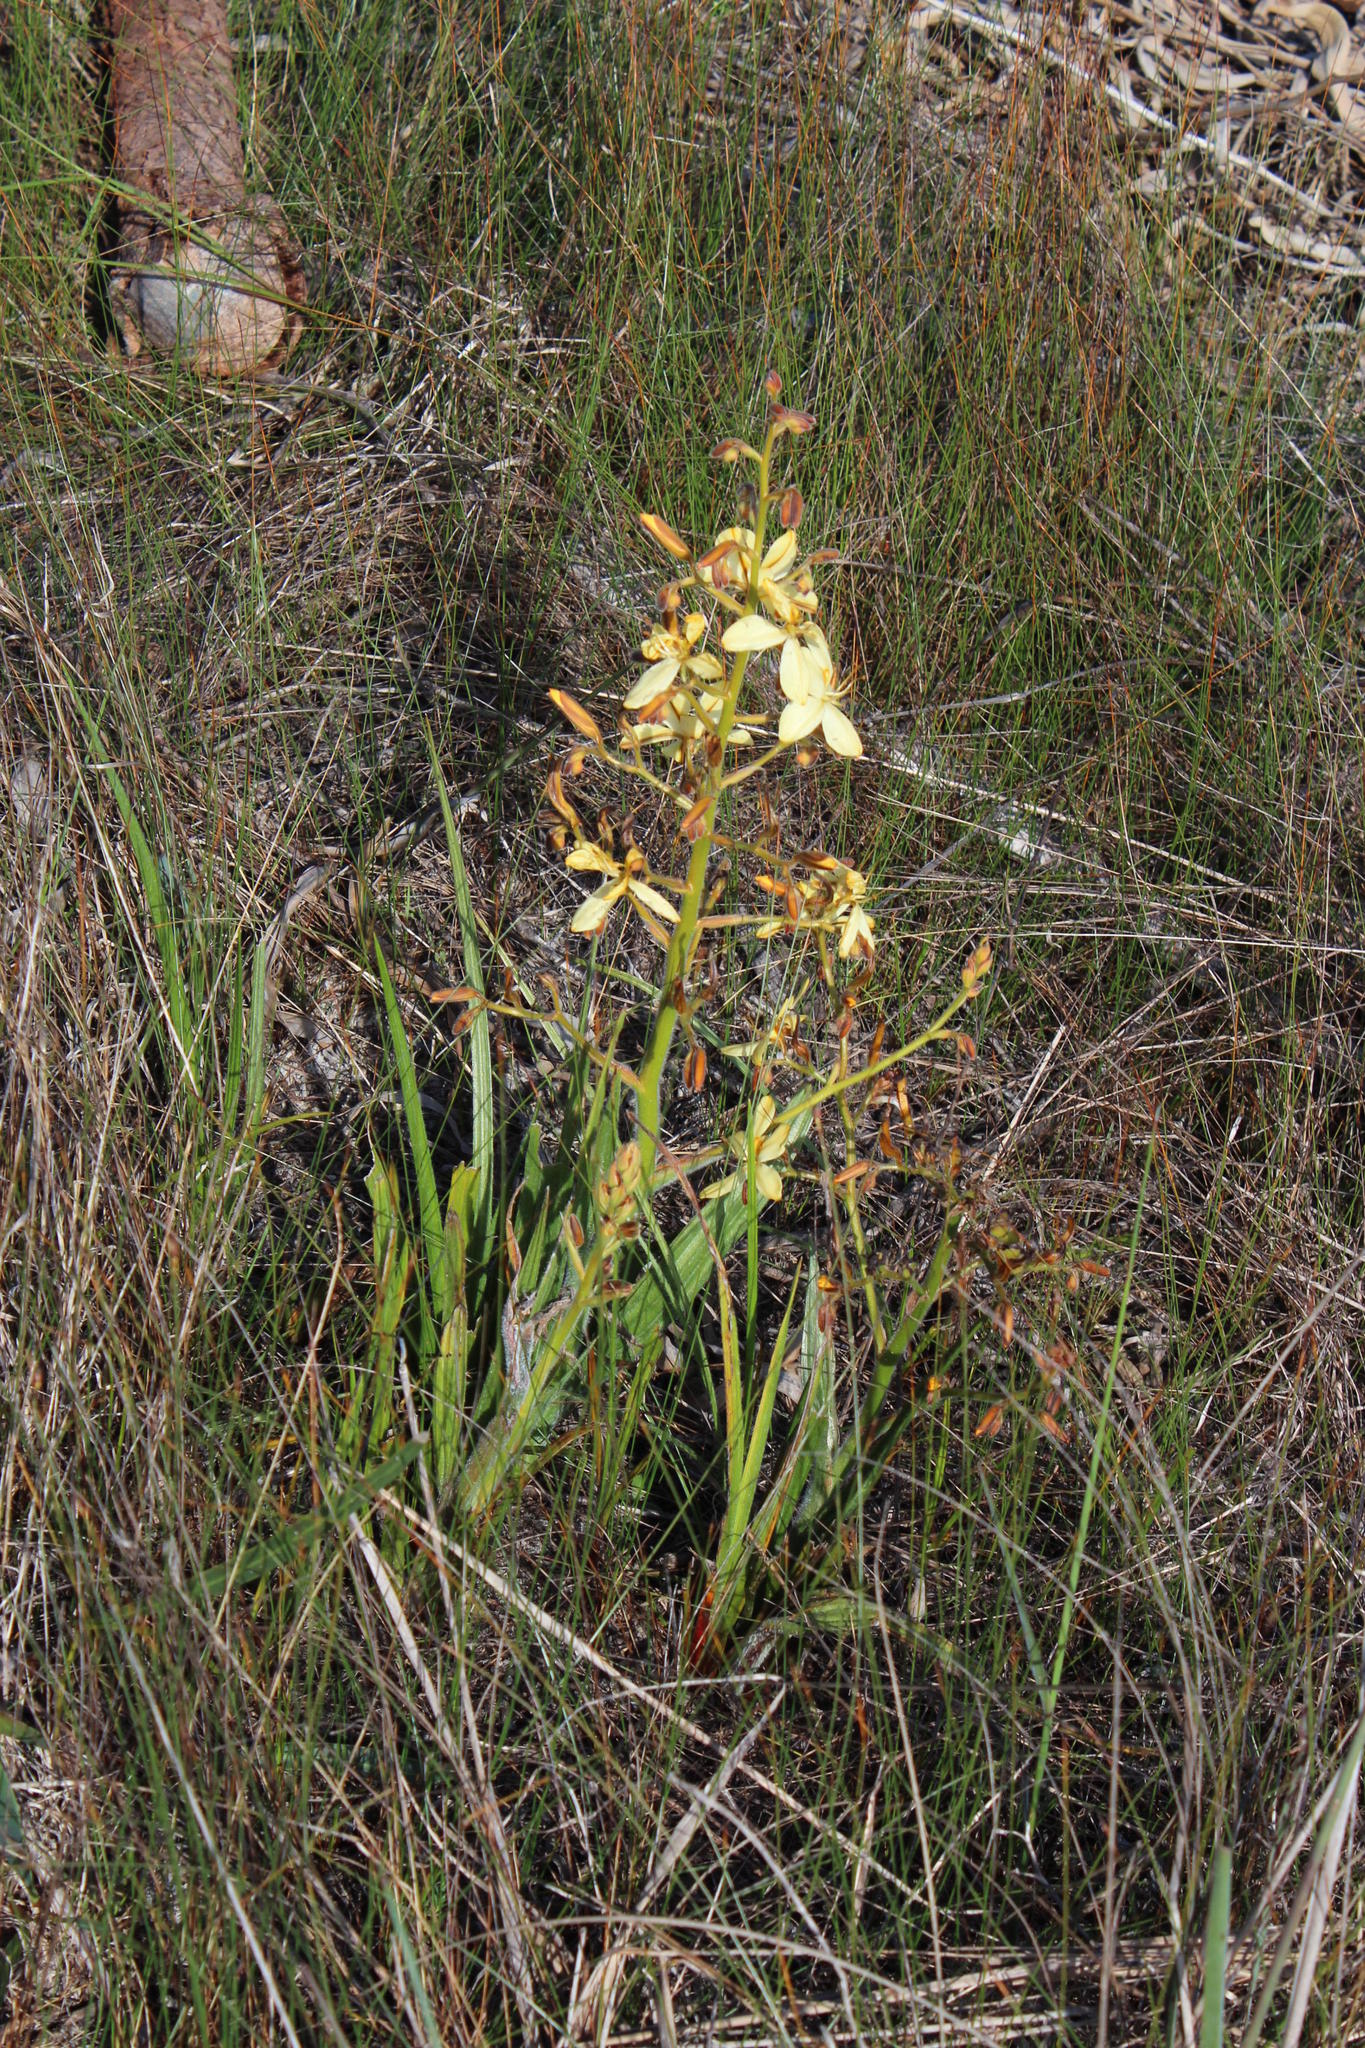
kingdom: Plantae
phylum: Tracheophyta
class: Liliopsida
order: Commelinales
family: Haemodoraceae
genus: Wachendorfia
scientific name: Wachendorfia paniculata
